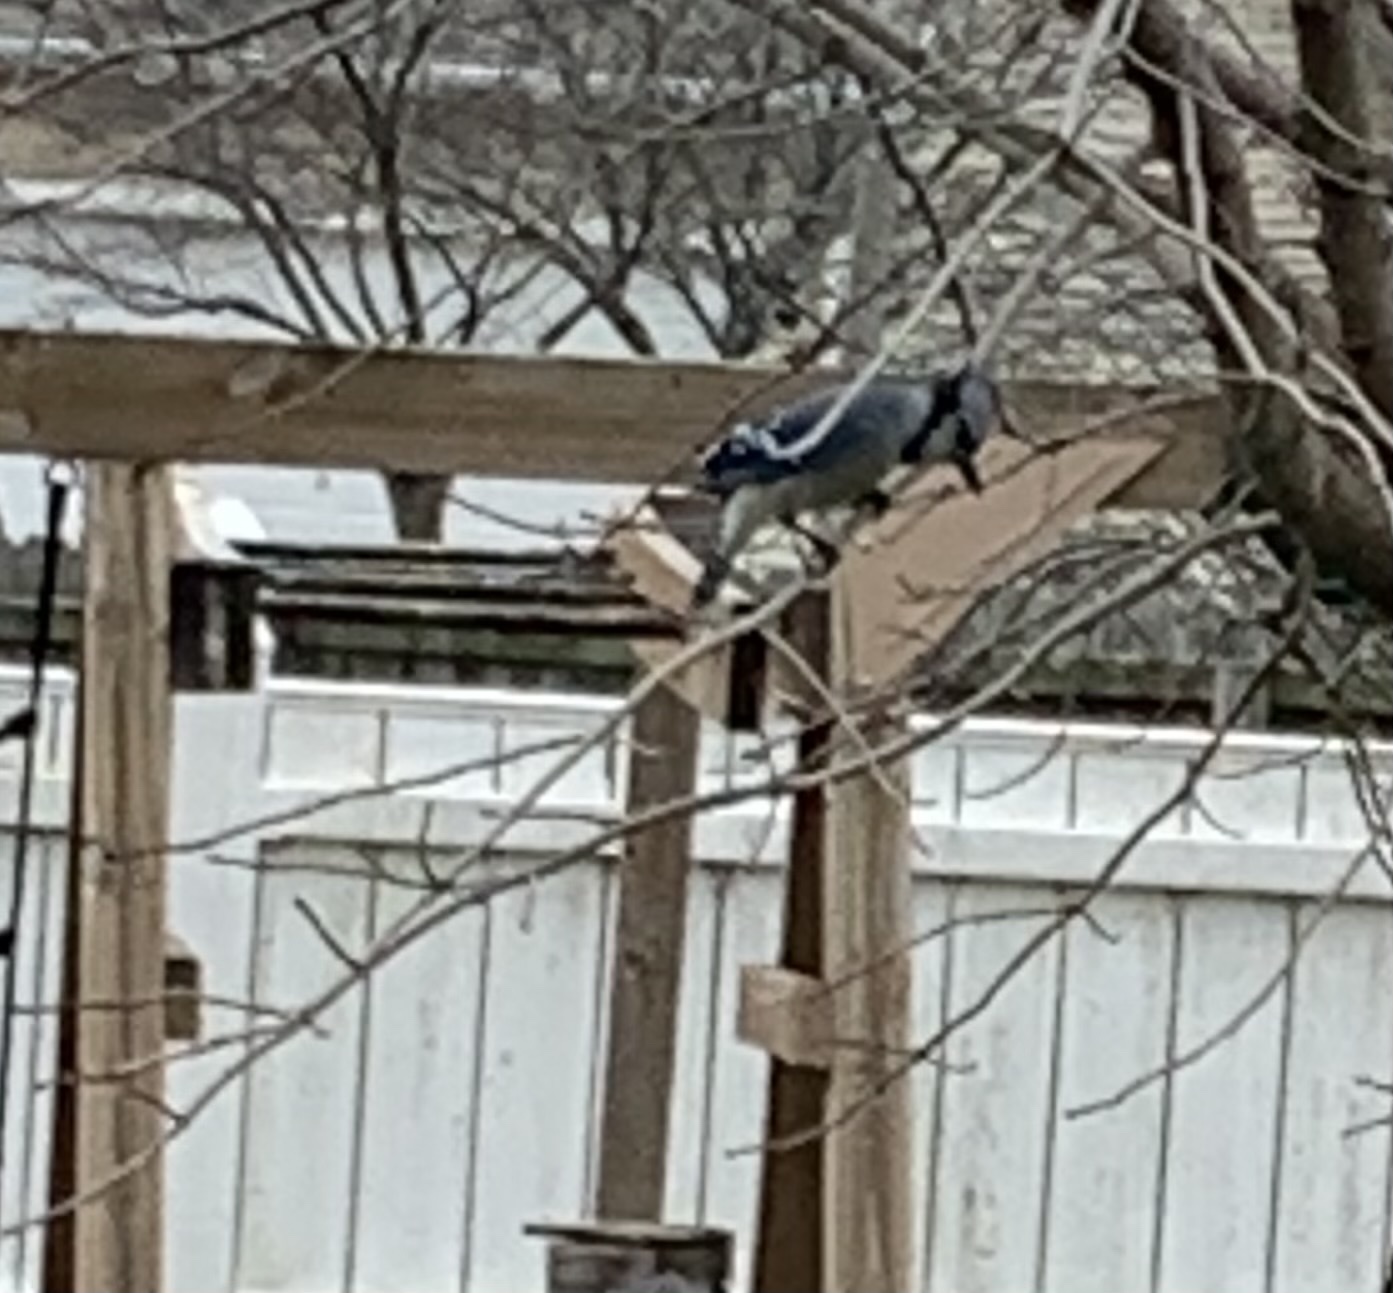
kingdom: Animalia
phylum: Chordata
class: Aves
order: Passeriformes
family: Corvidae
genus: Cyanocitta
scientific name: Cyanocitta cristata
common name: Blue jay
